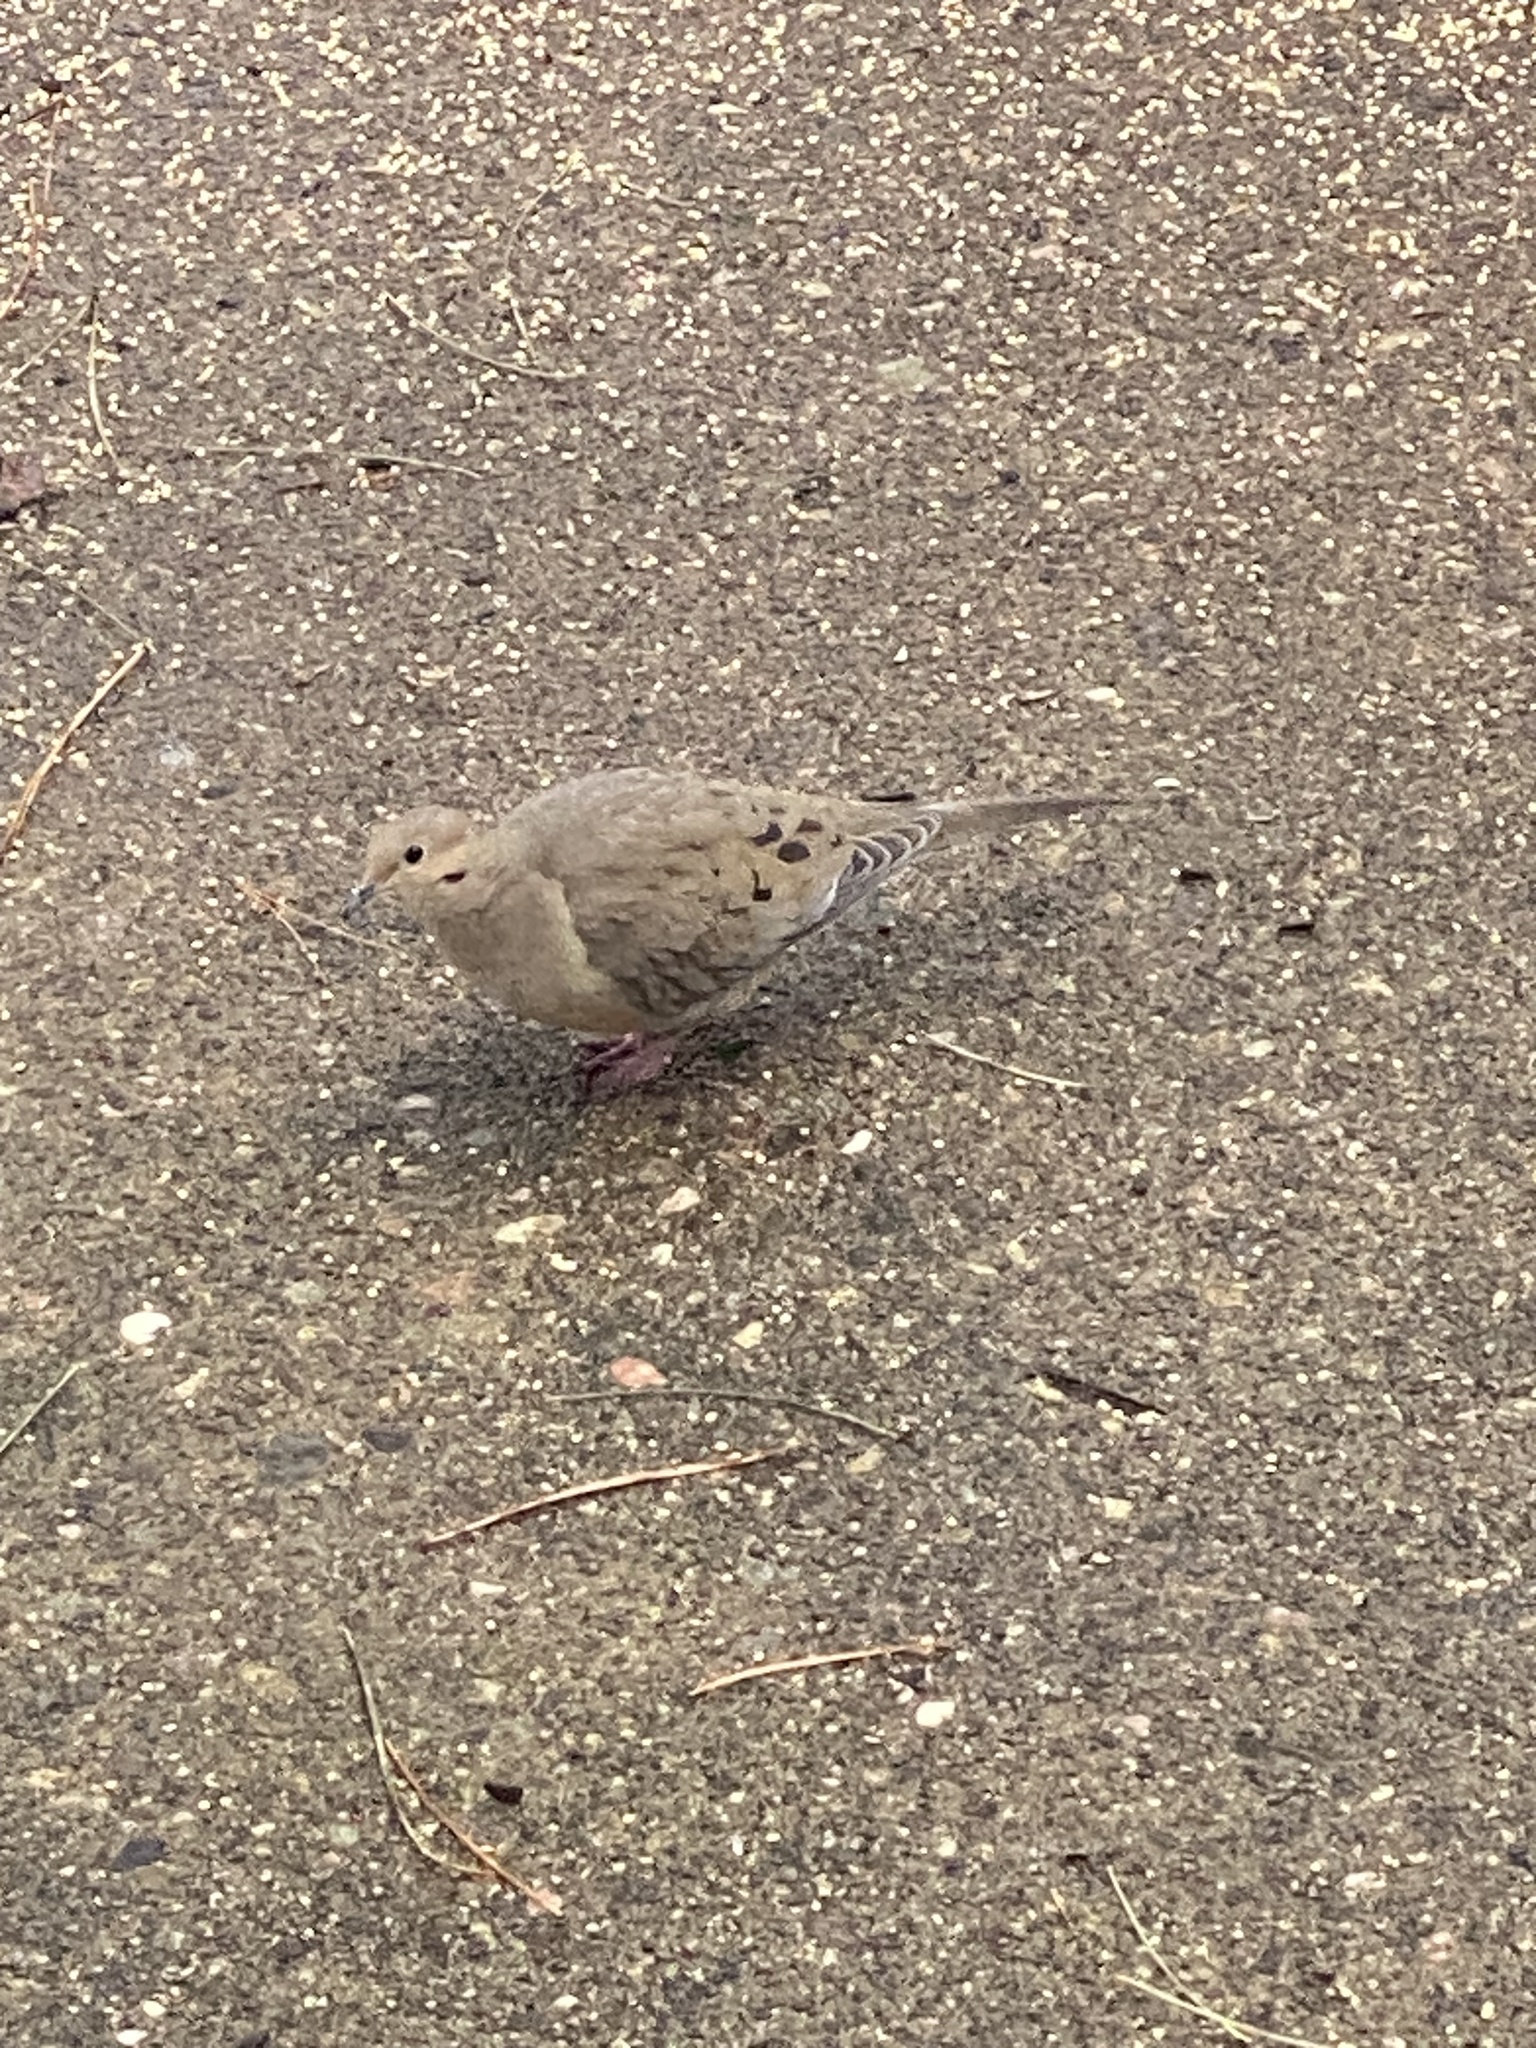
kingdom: Animalia
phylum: Chordata
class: Aves
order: Columbiformes
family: Columbidae
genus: Zenaida
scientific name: Zenaida macroura
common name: Mourning dove
